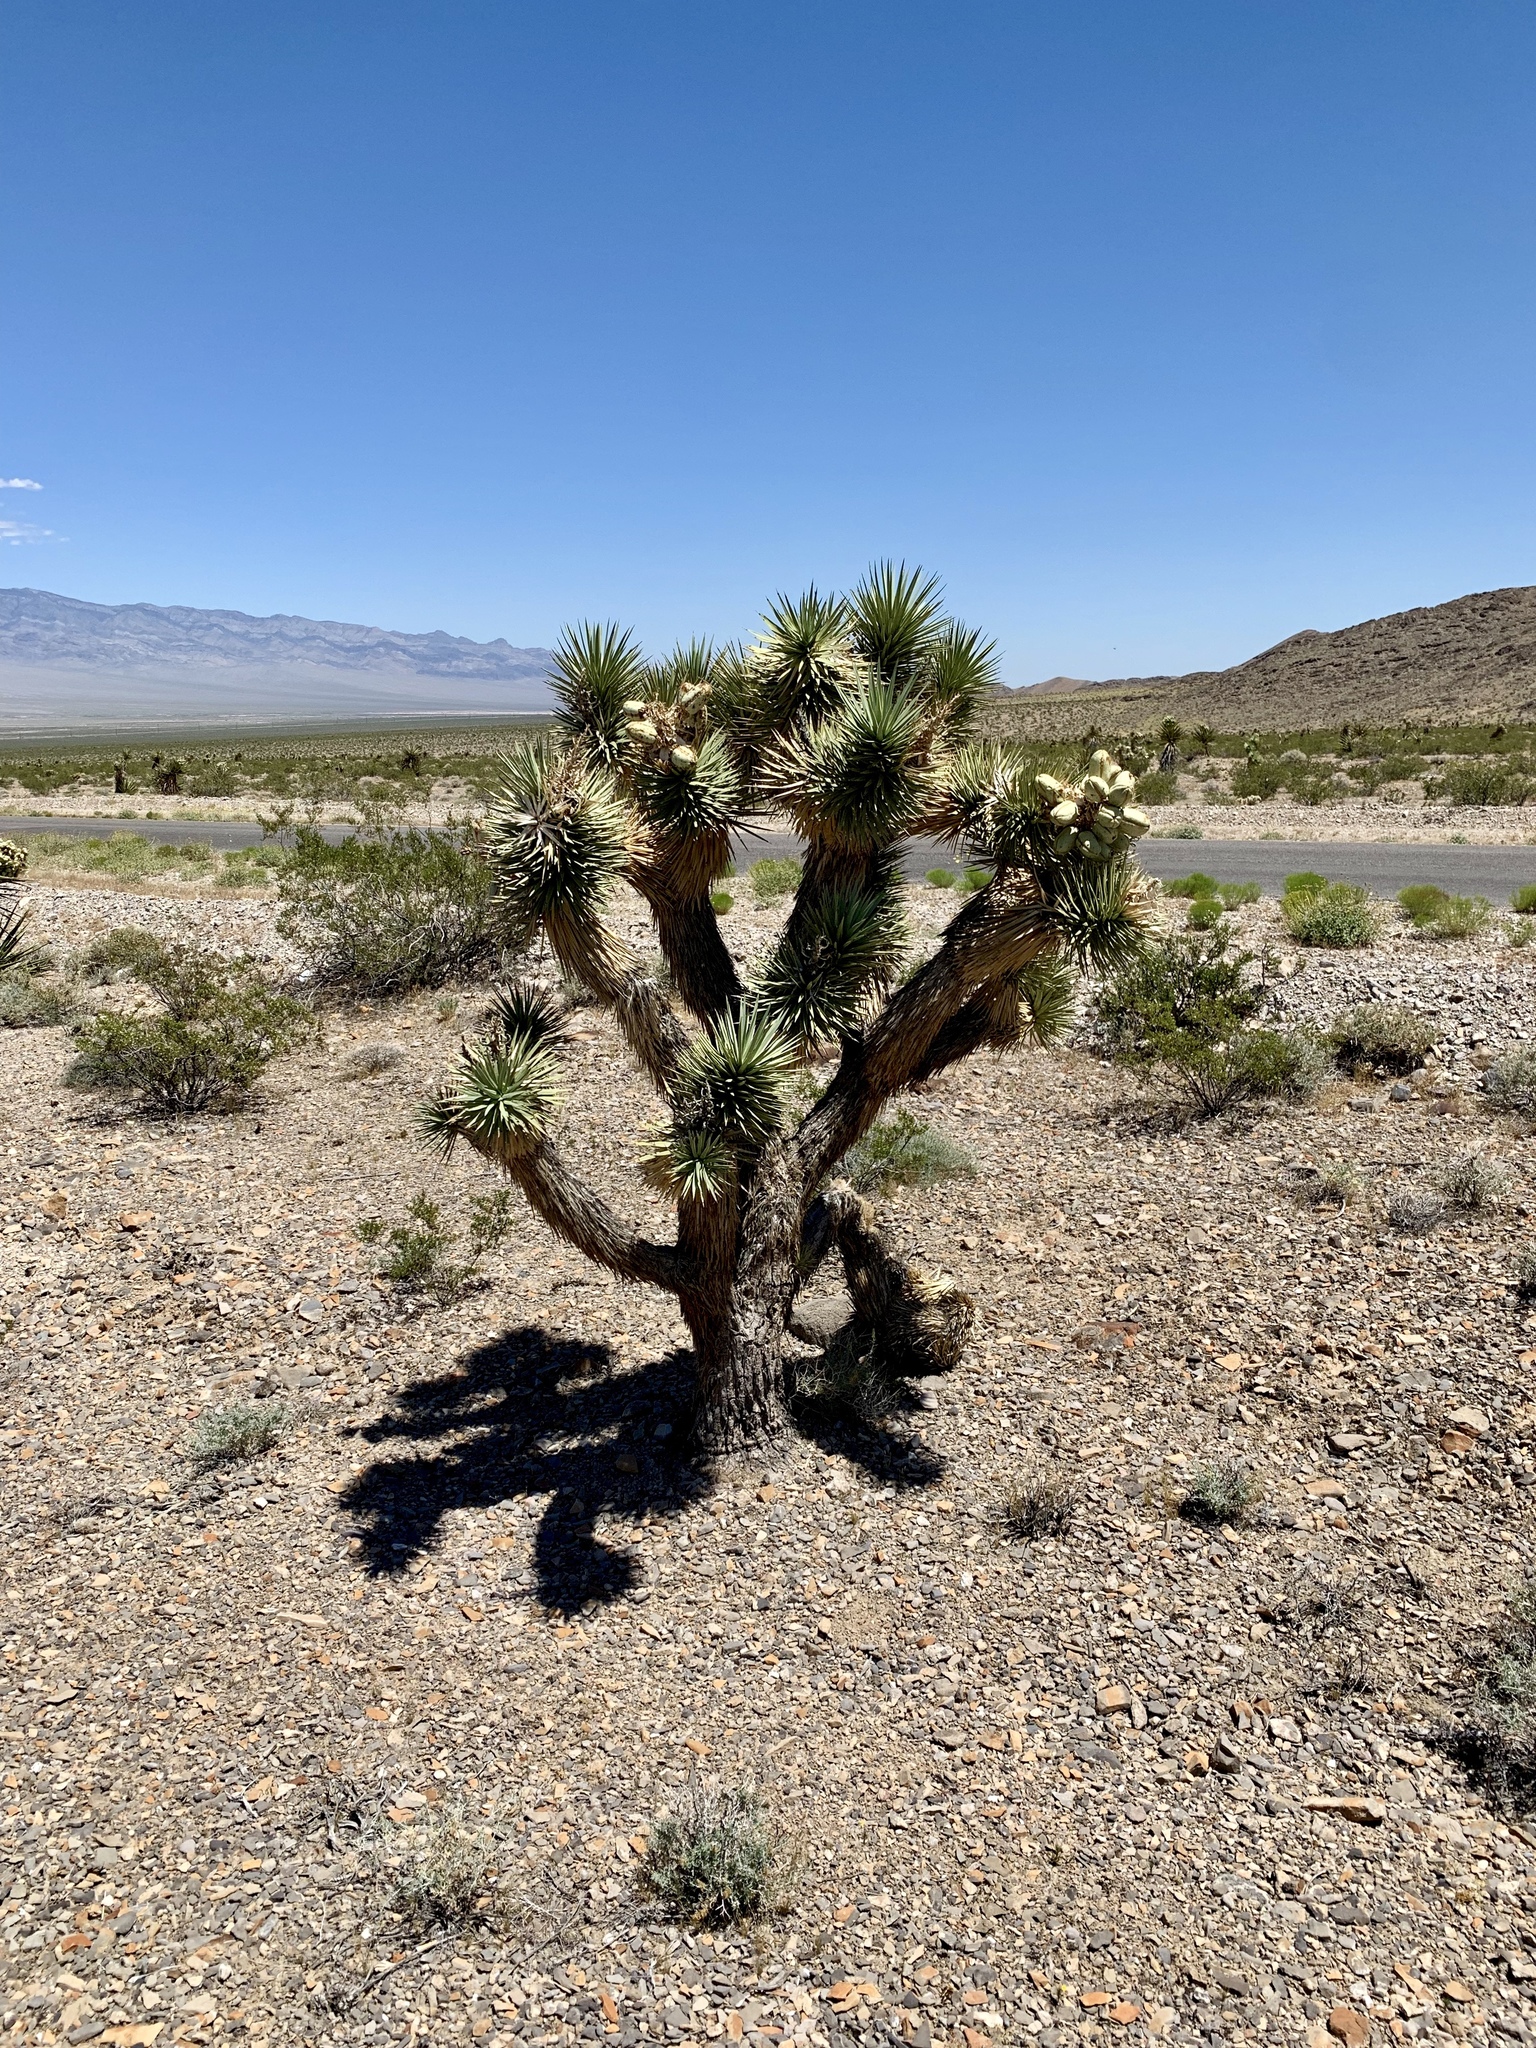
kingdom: Plantae
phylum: Tracheophyta
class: Liliopsida
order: Asparagales
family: Asparagaceae
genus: Yucca
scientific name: Yucca brevifolia
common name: Joshua tree
